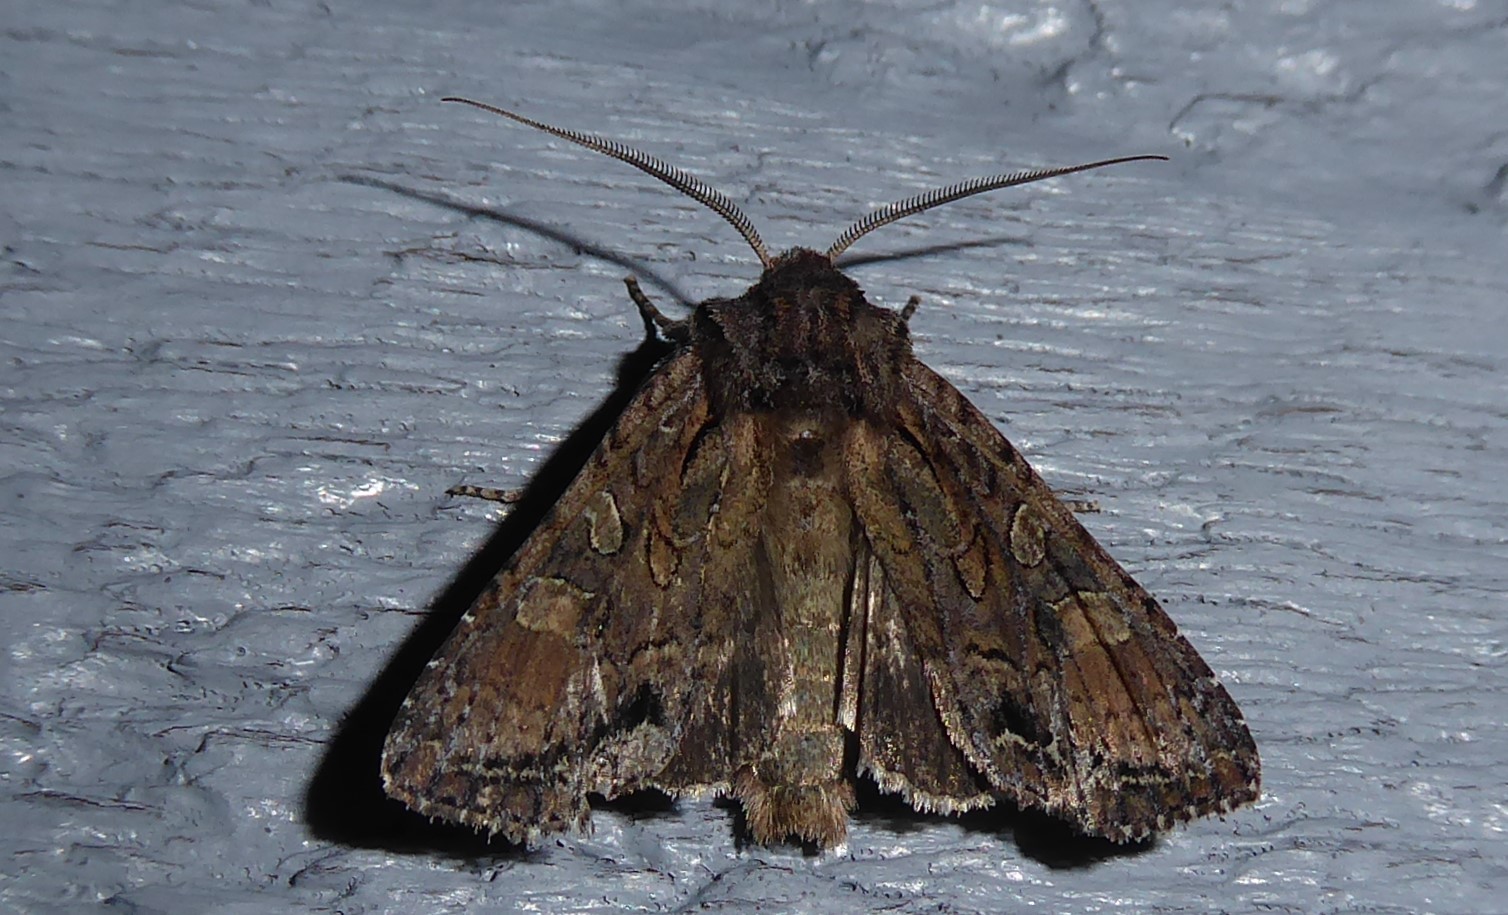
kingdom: Animalia
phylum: Arthropoda
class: Insecta
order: Lepidoptera
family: Noctuidae
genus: Ichneutica
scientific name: Ichneutica mutans
